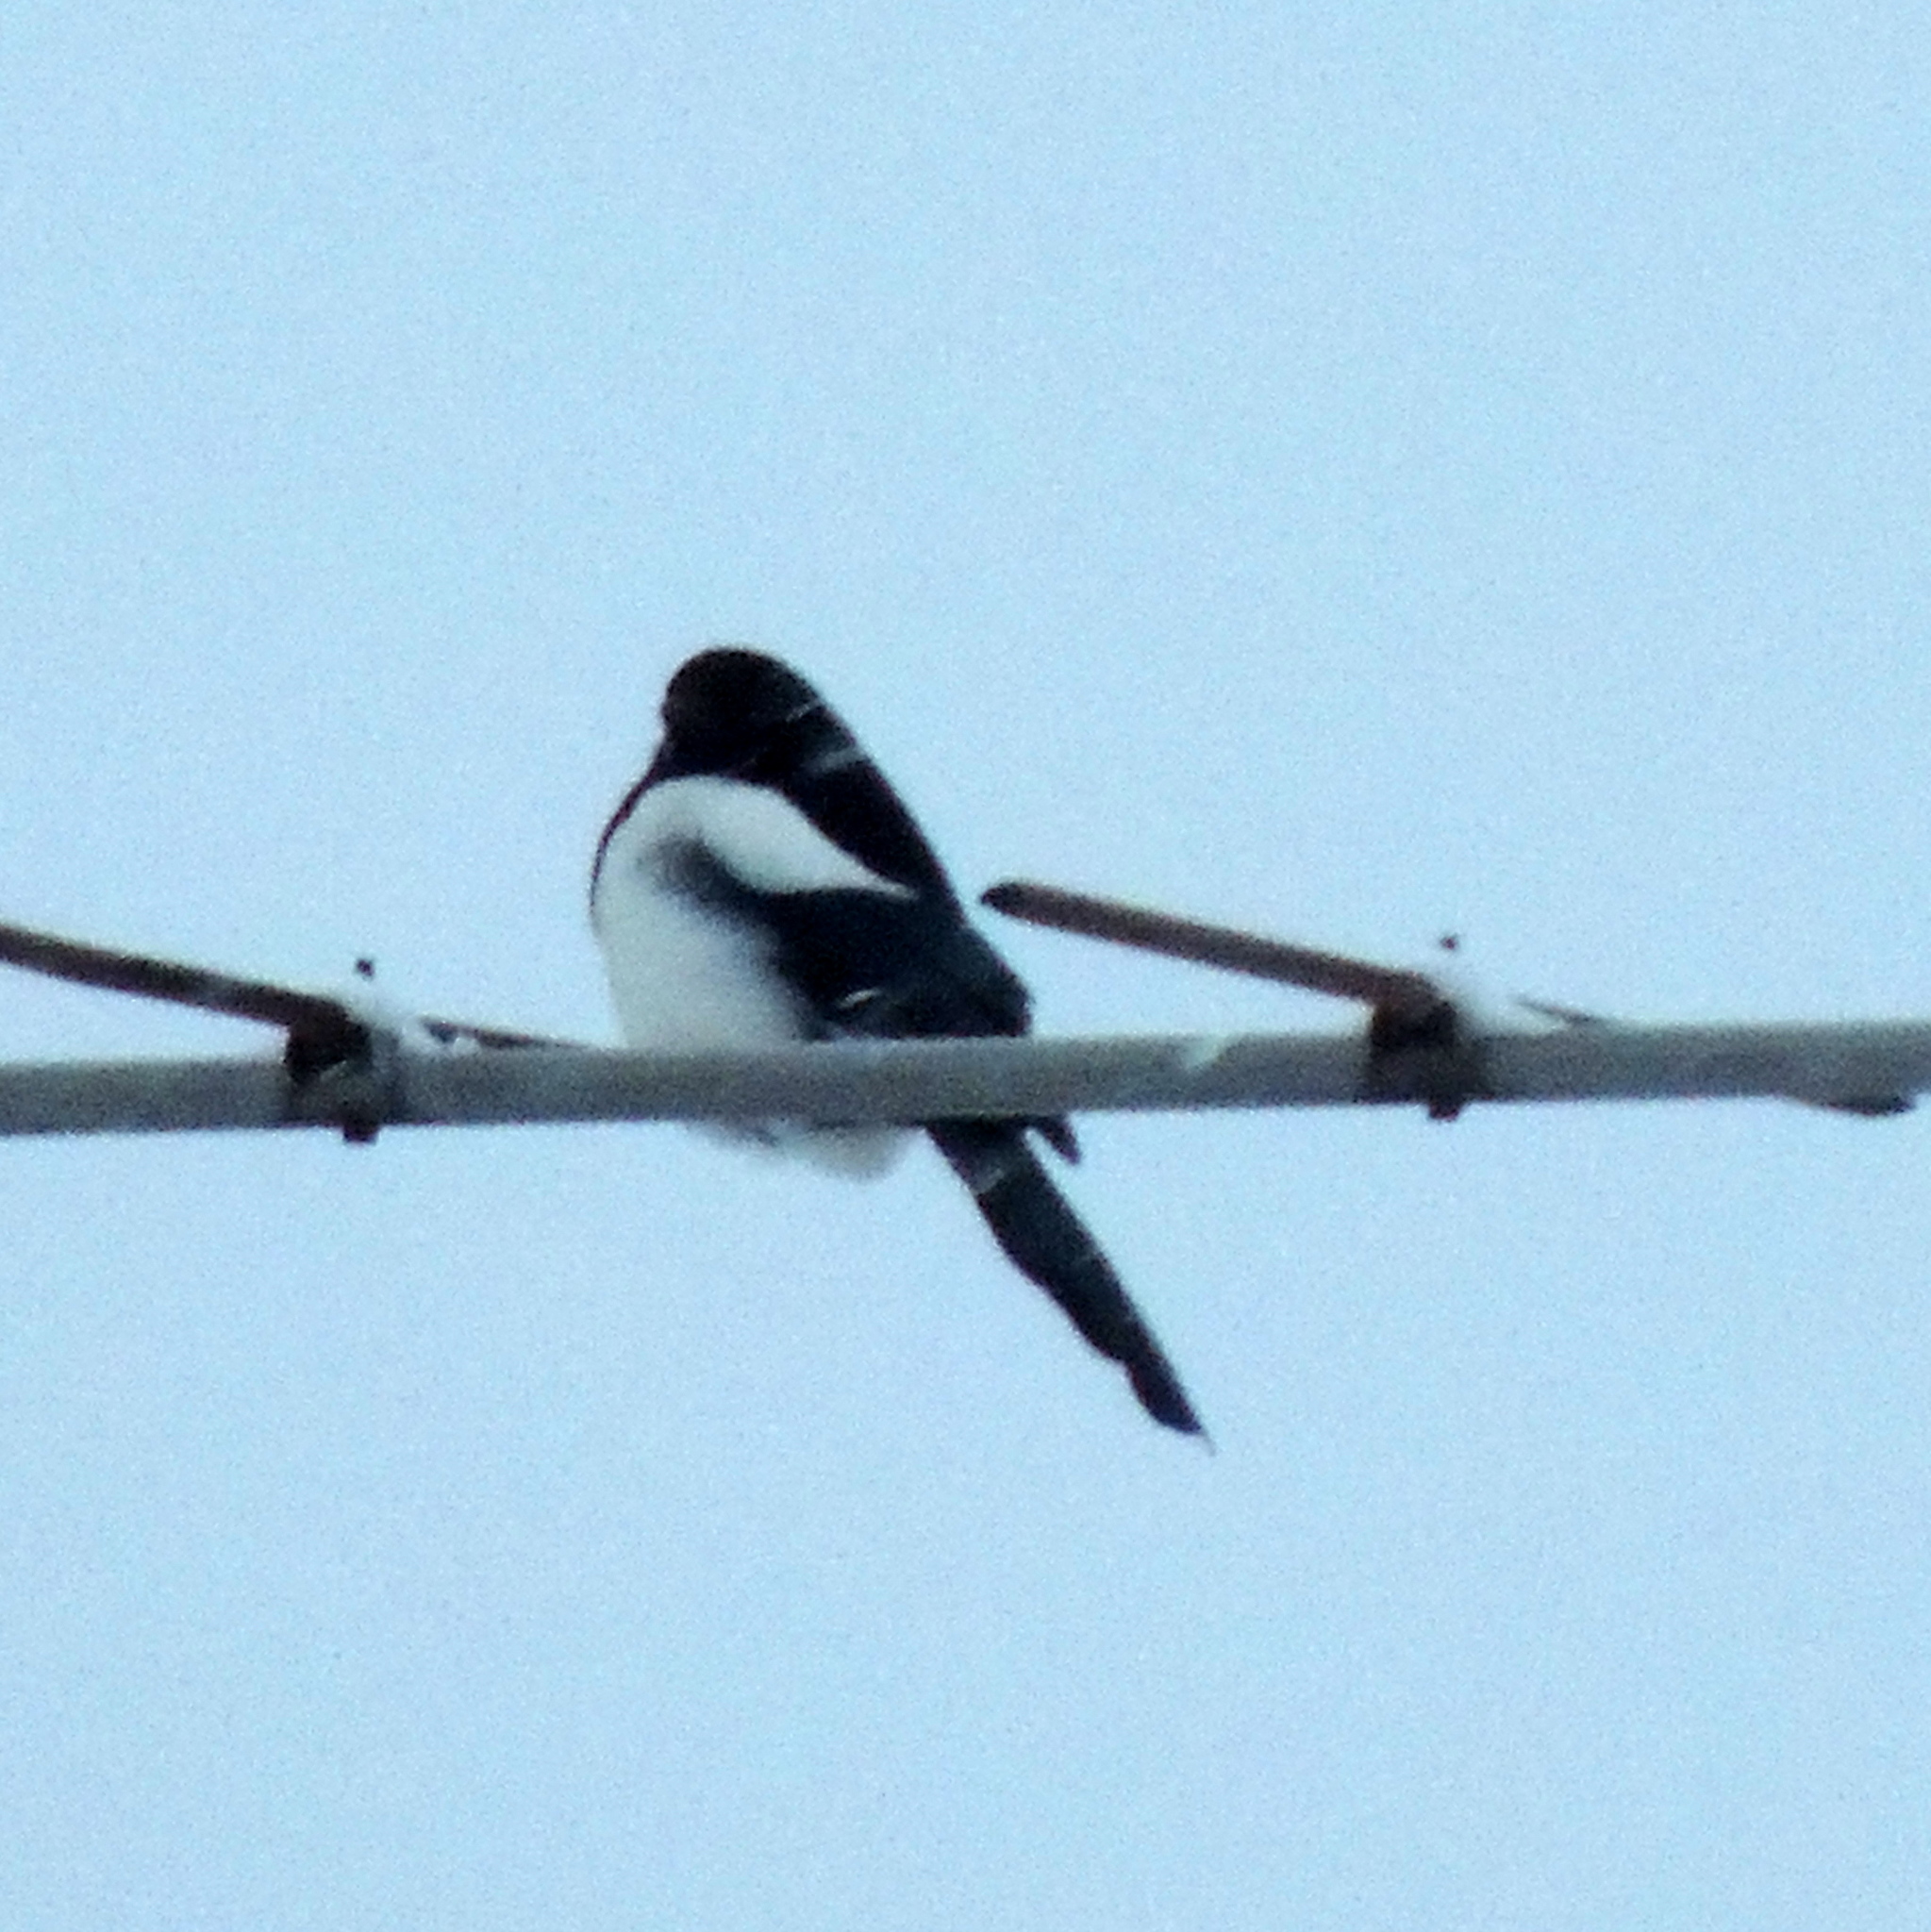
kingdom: Animalia
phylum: Chordata
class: Aves
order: Passeriformes
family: Corvidae
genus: Pica
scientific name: Pica pica
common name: Eurasian magpie
